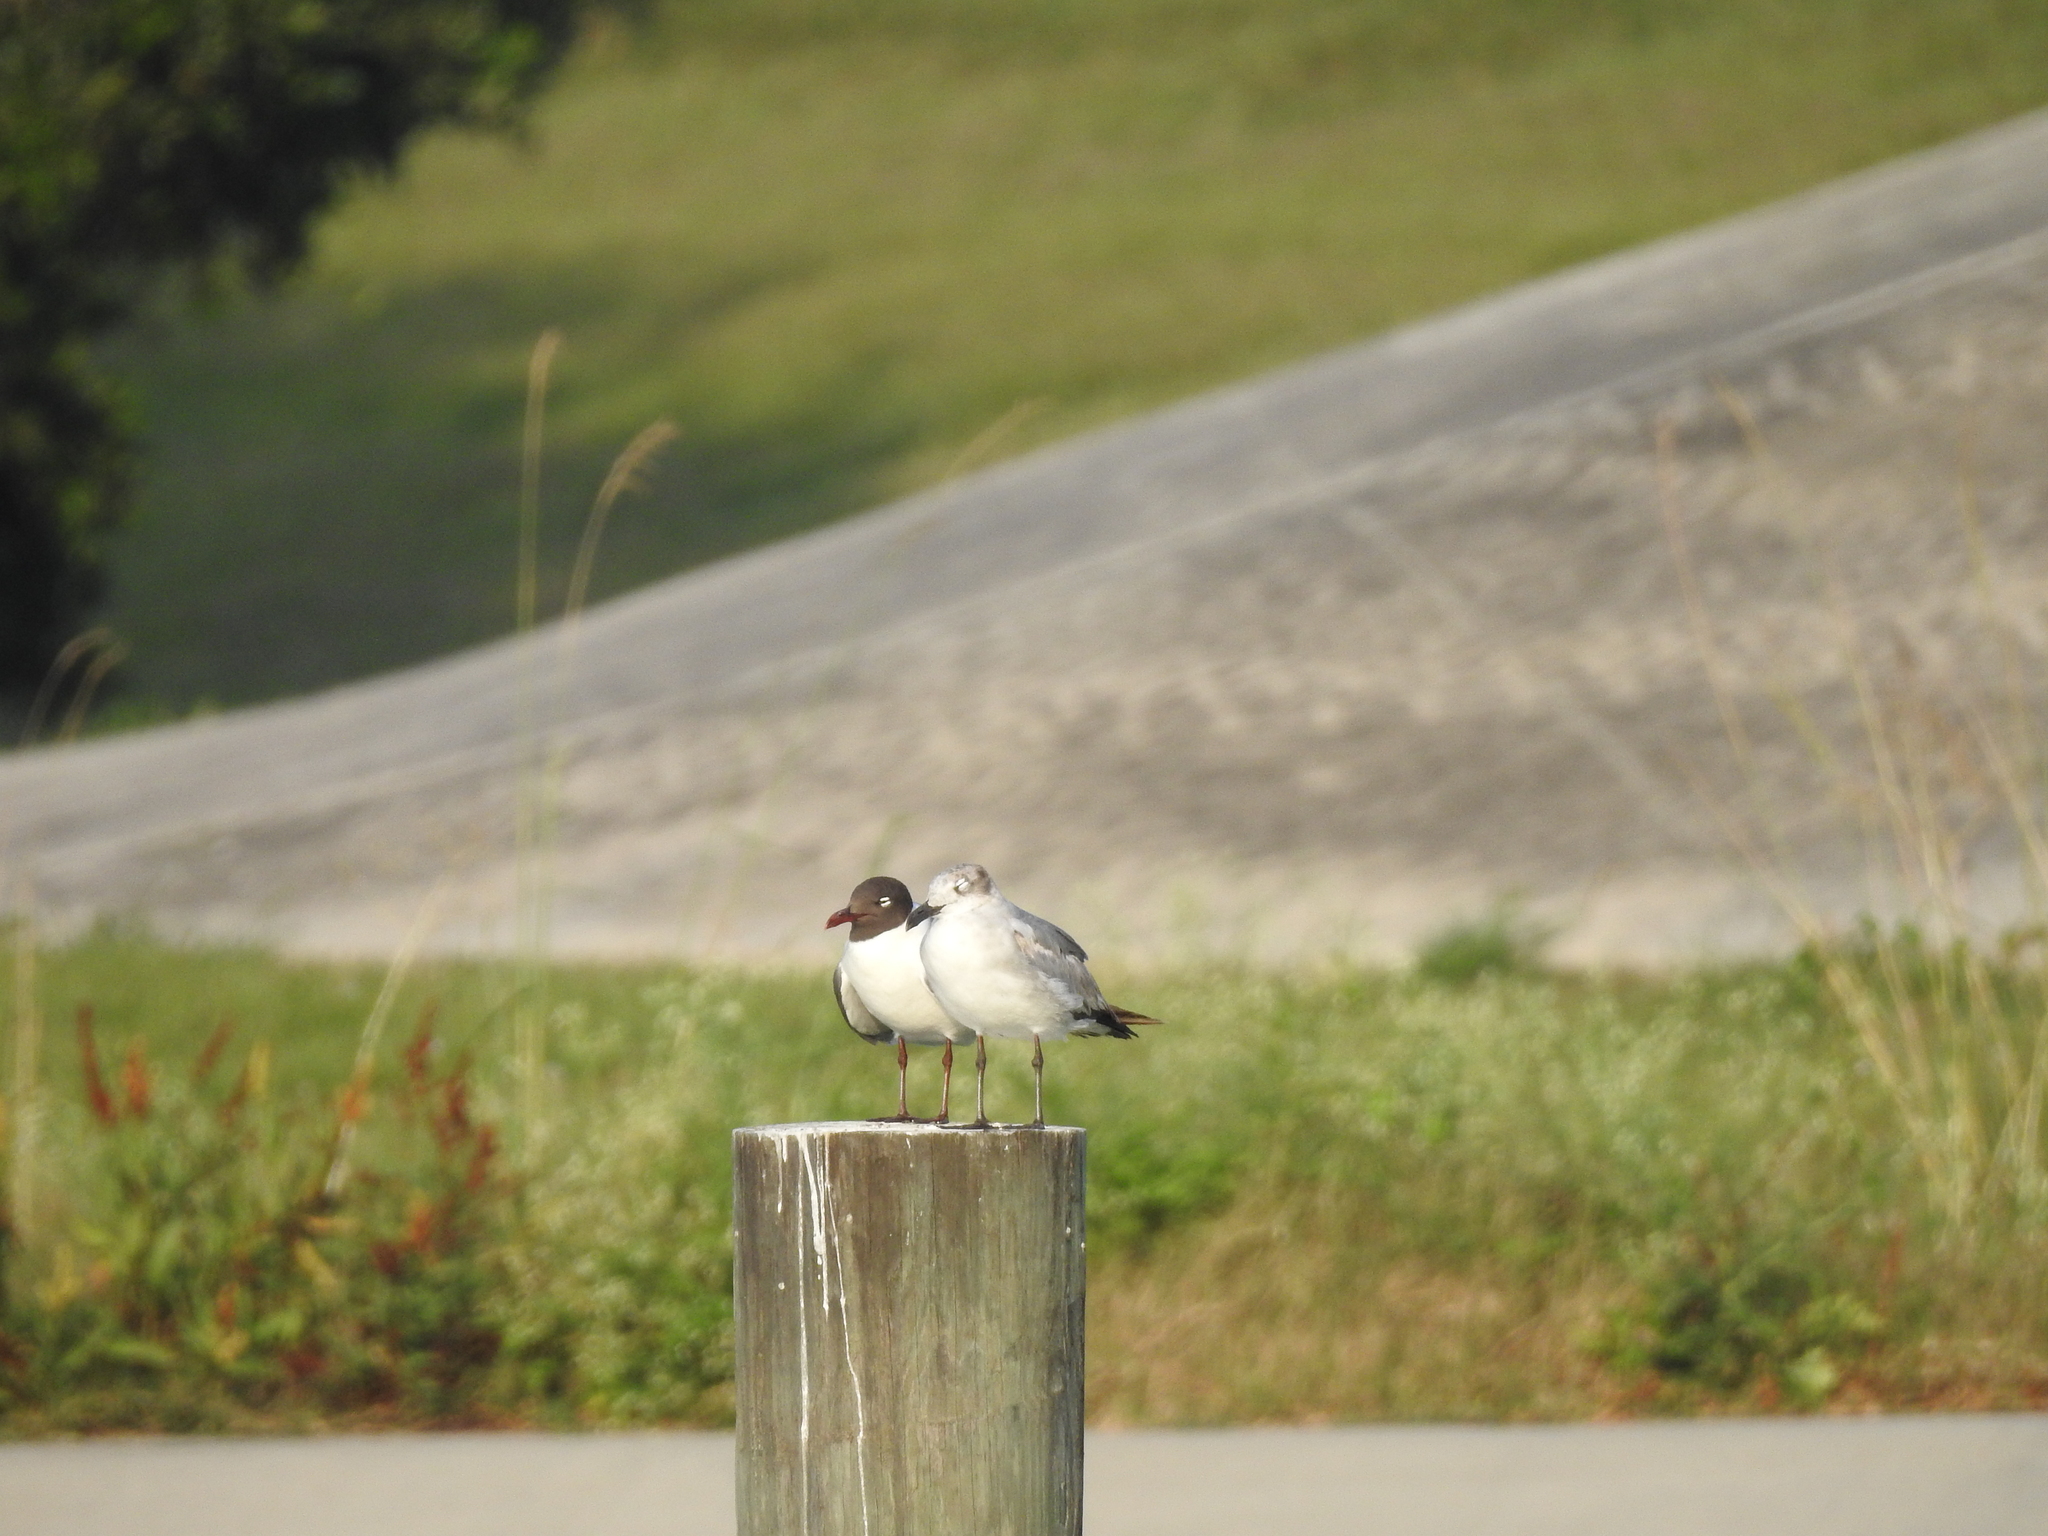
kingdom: Animalia
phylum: Chordata
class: Aves
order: Charadriiformes
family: Laridae
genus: Leucophaeus
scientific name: Leucophaeus atricilla
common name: Laughing gull
